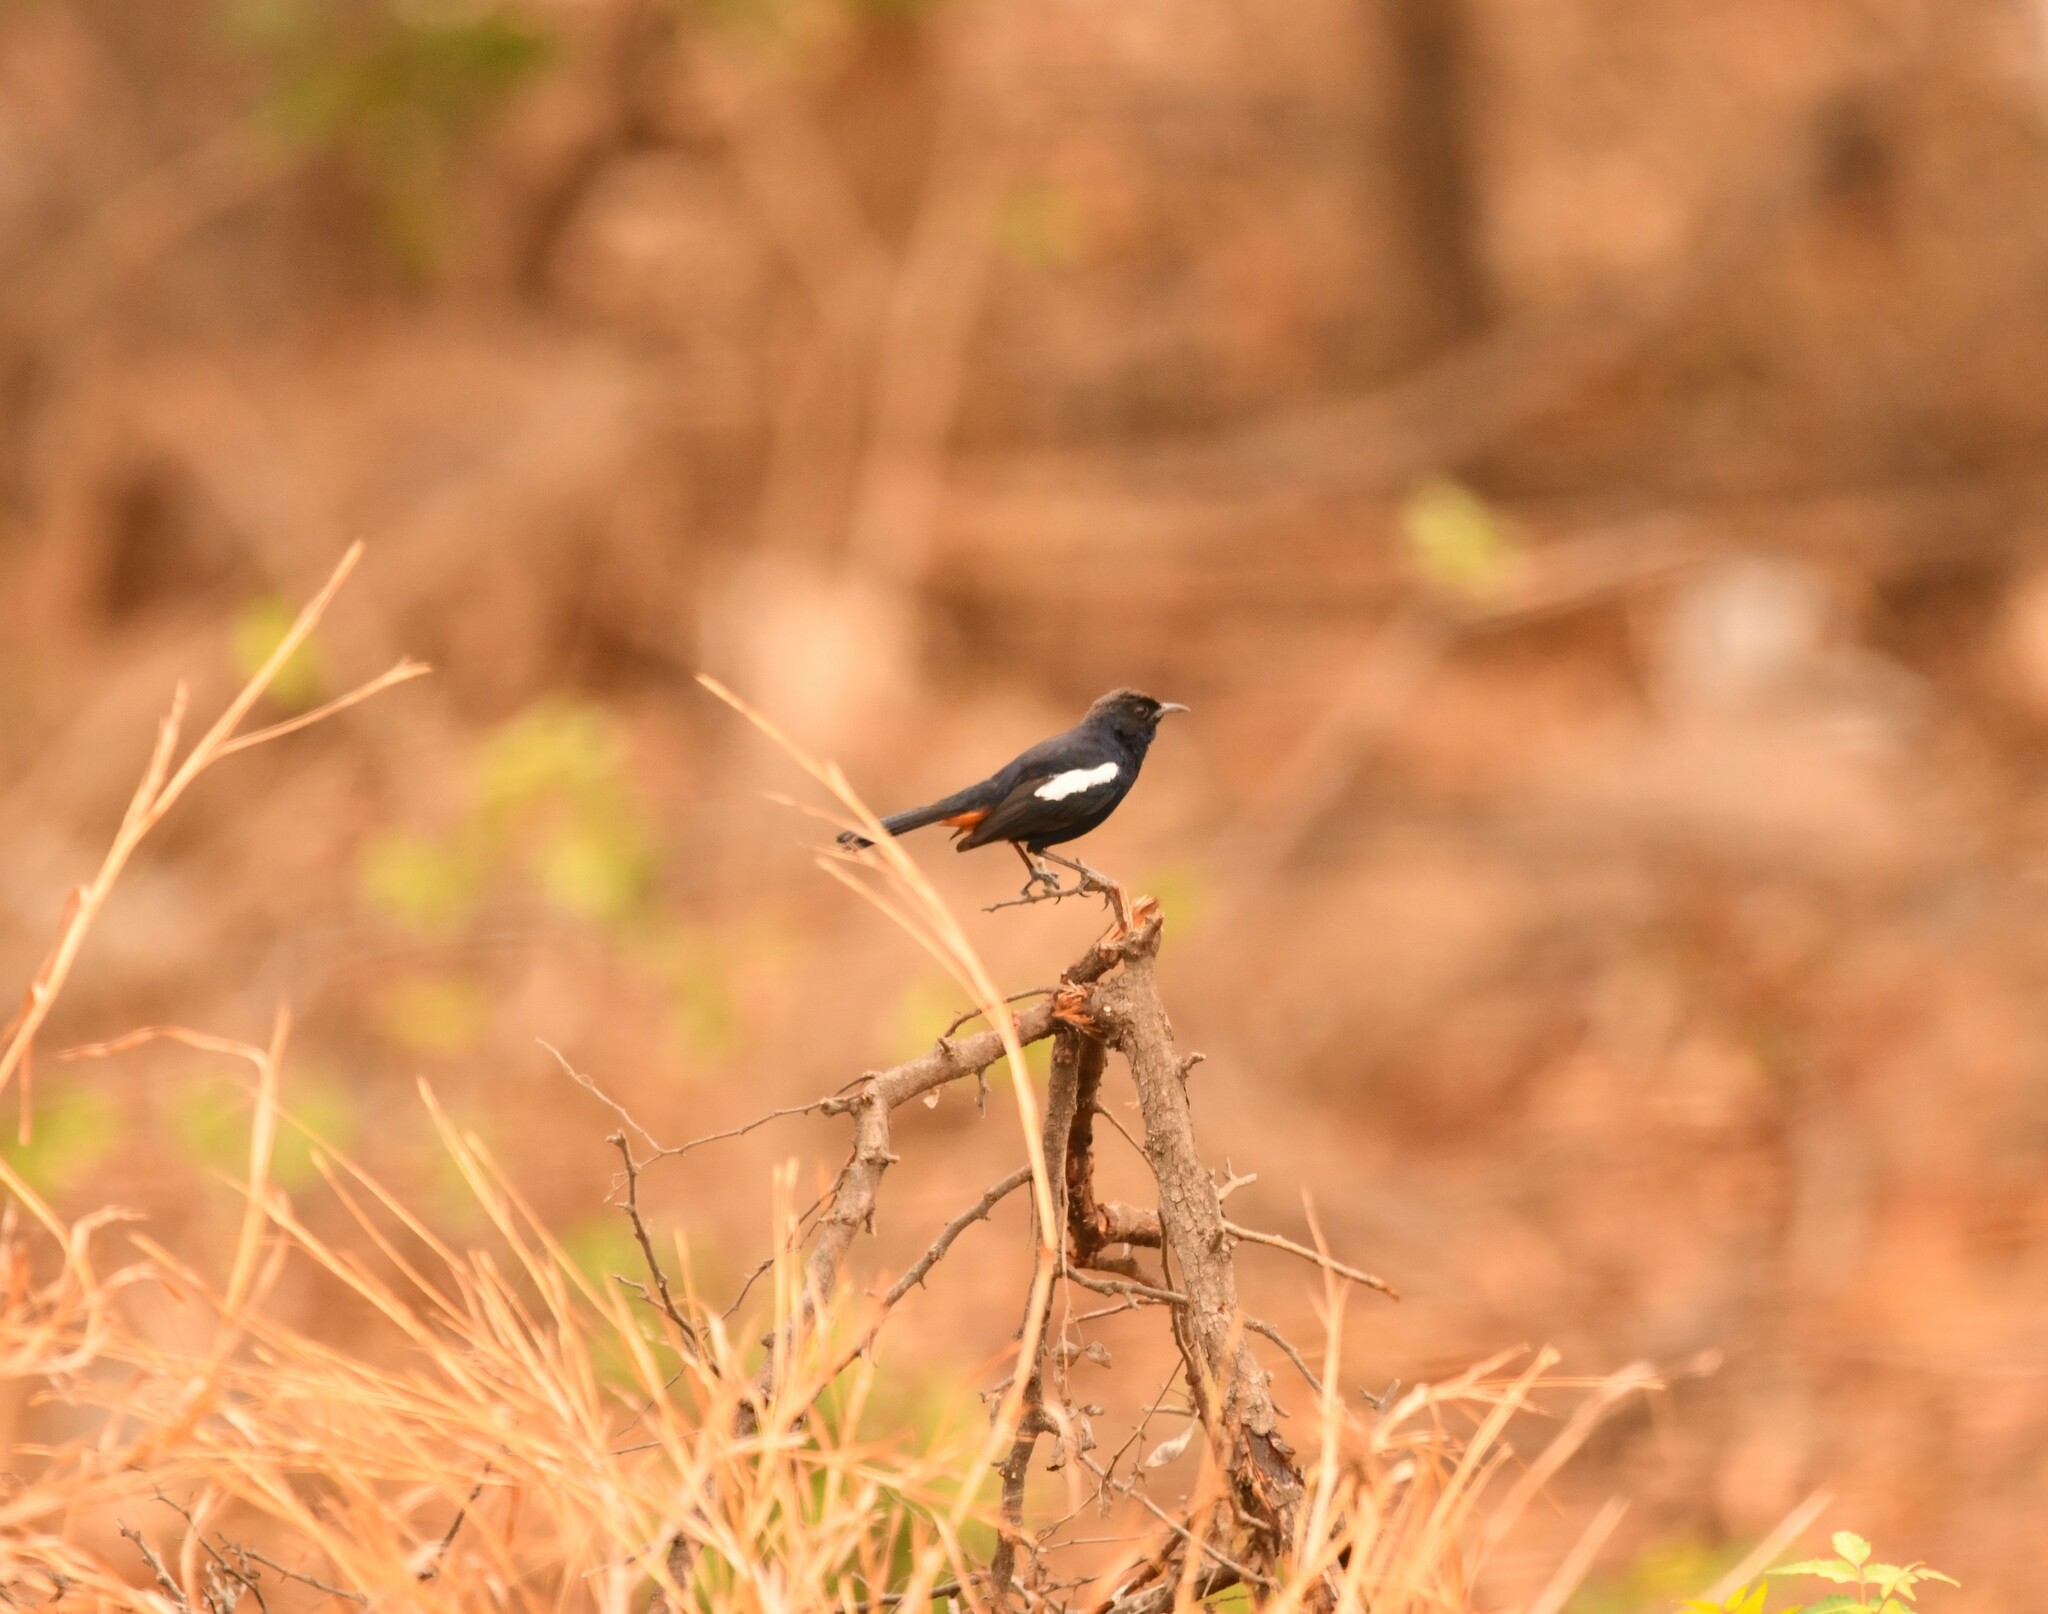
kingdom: Animalia
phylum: Chordata
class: Aves
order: Passeriformes
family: Muscicapidae
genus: Saxicoloides
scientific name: Saxicoloides fulicatus
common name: Indian robin
